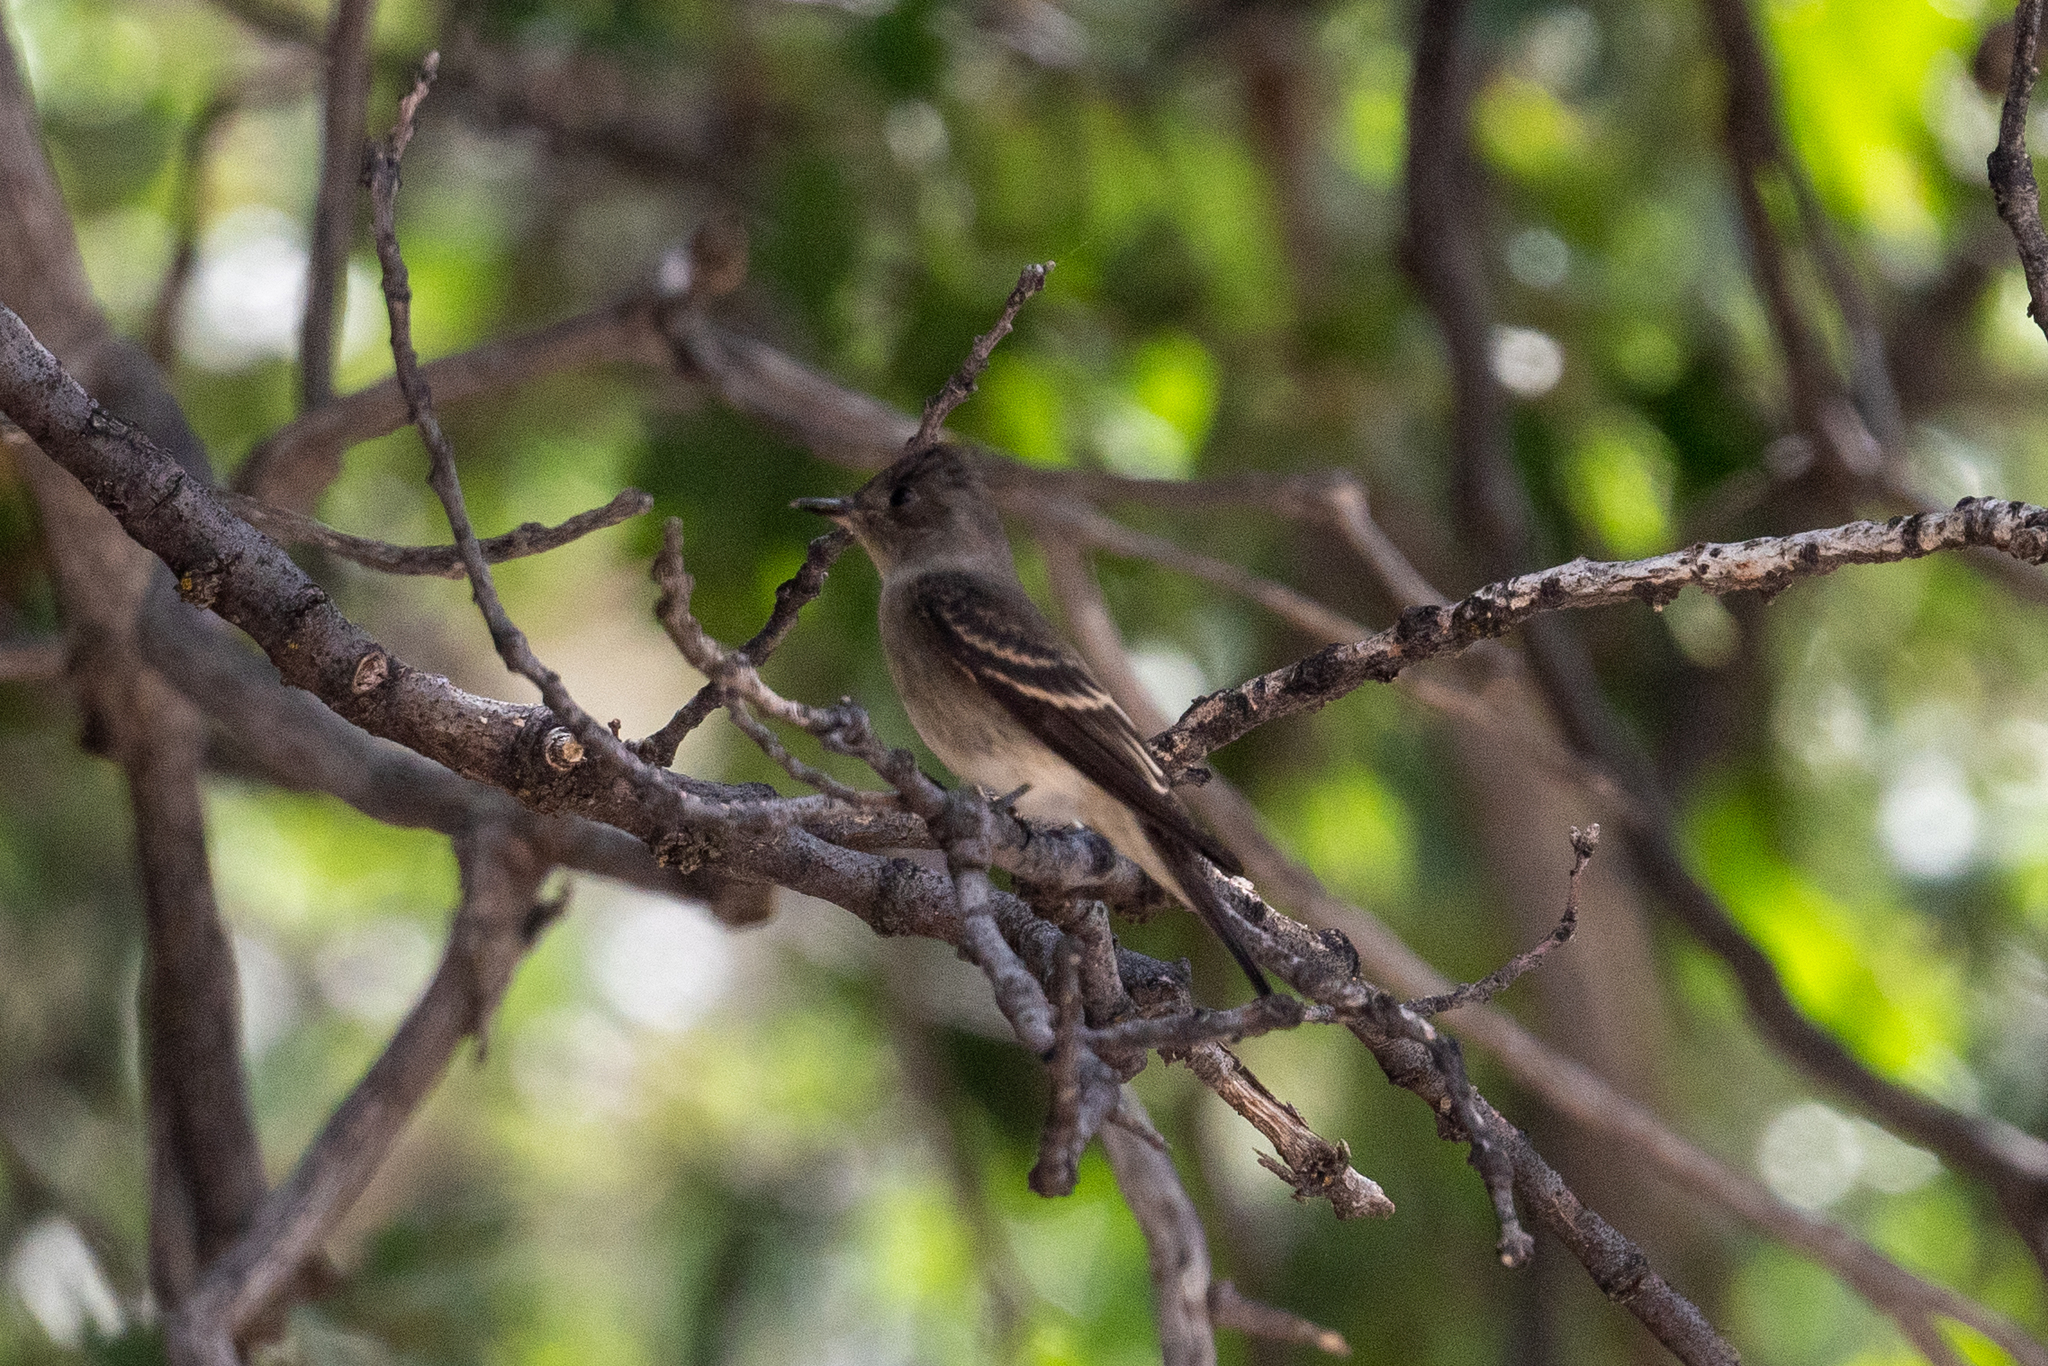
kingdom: Animalia
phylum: Chordata
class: Aves
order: Passeriformes
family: Tyrannidae
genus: Contopus
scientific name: Contopus sordidulus
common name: Western wood-pewee
